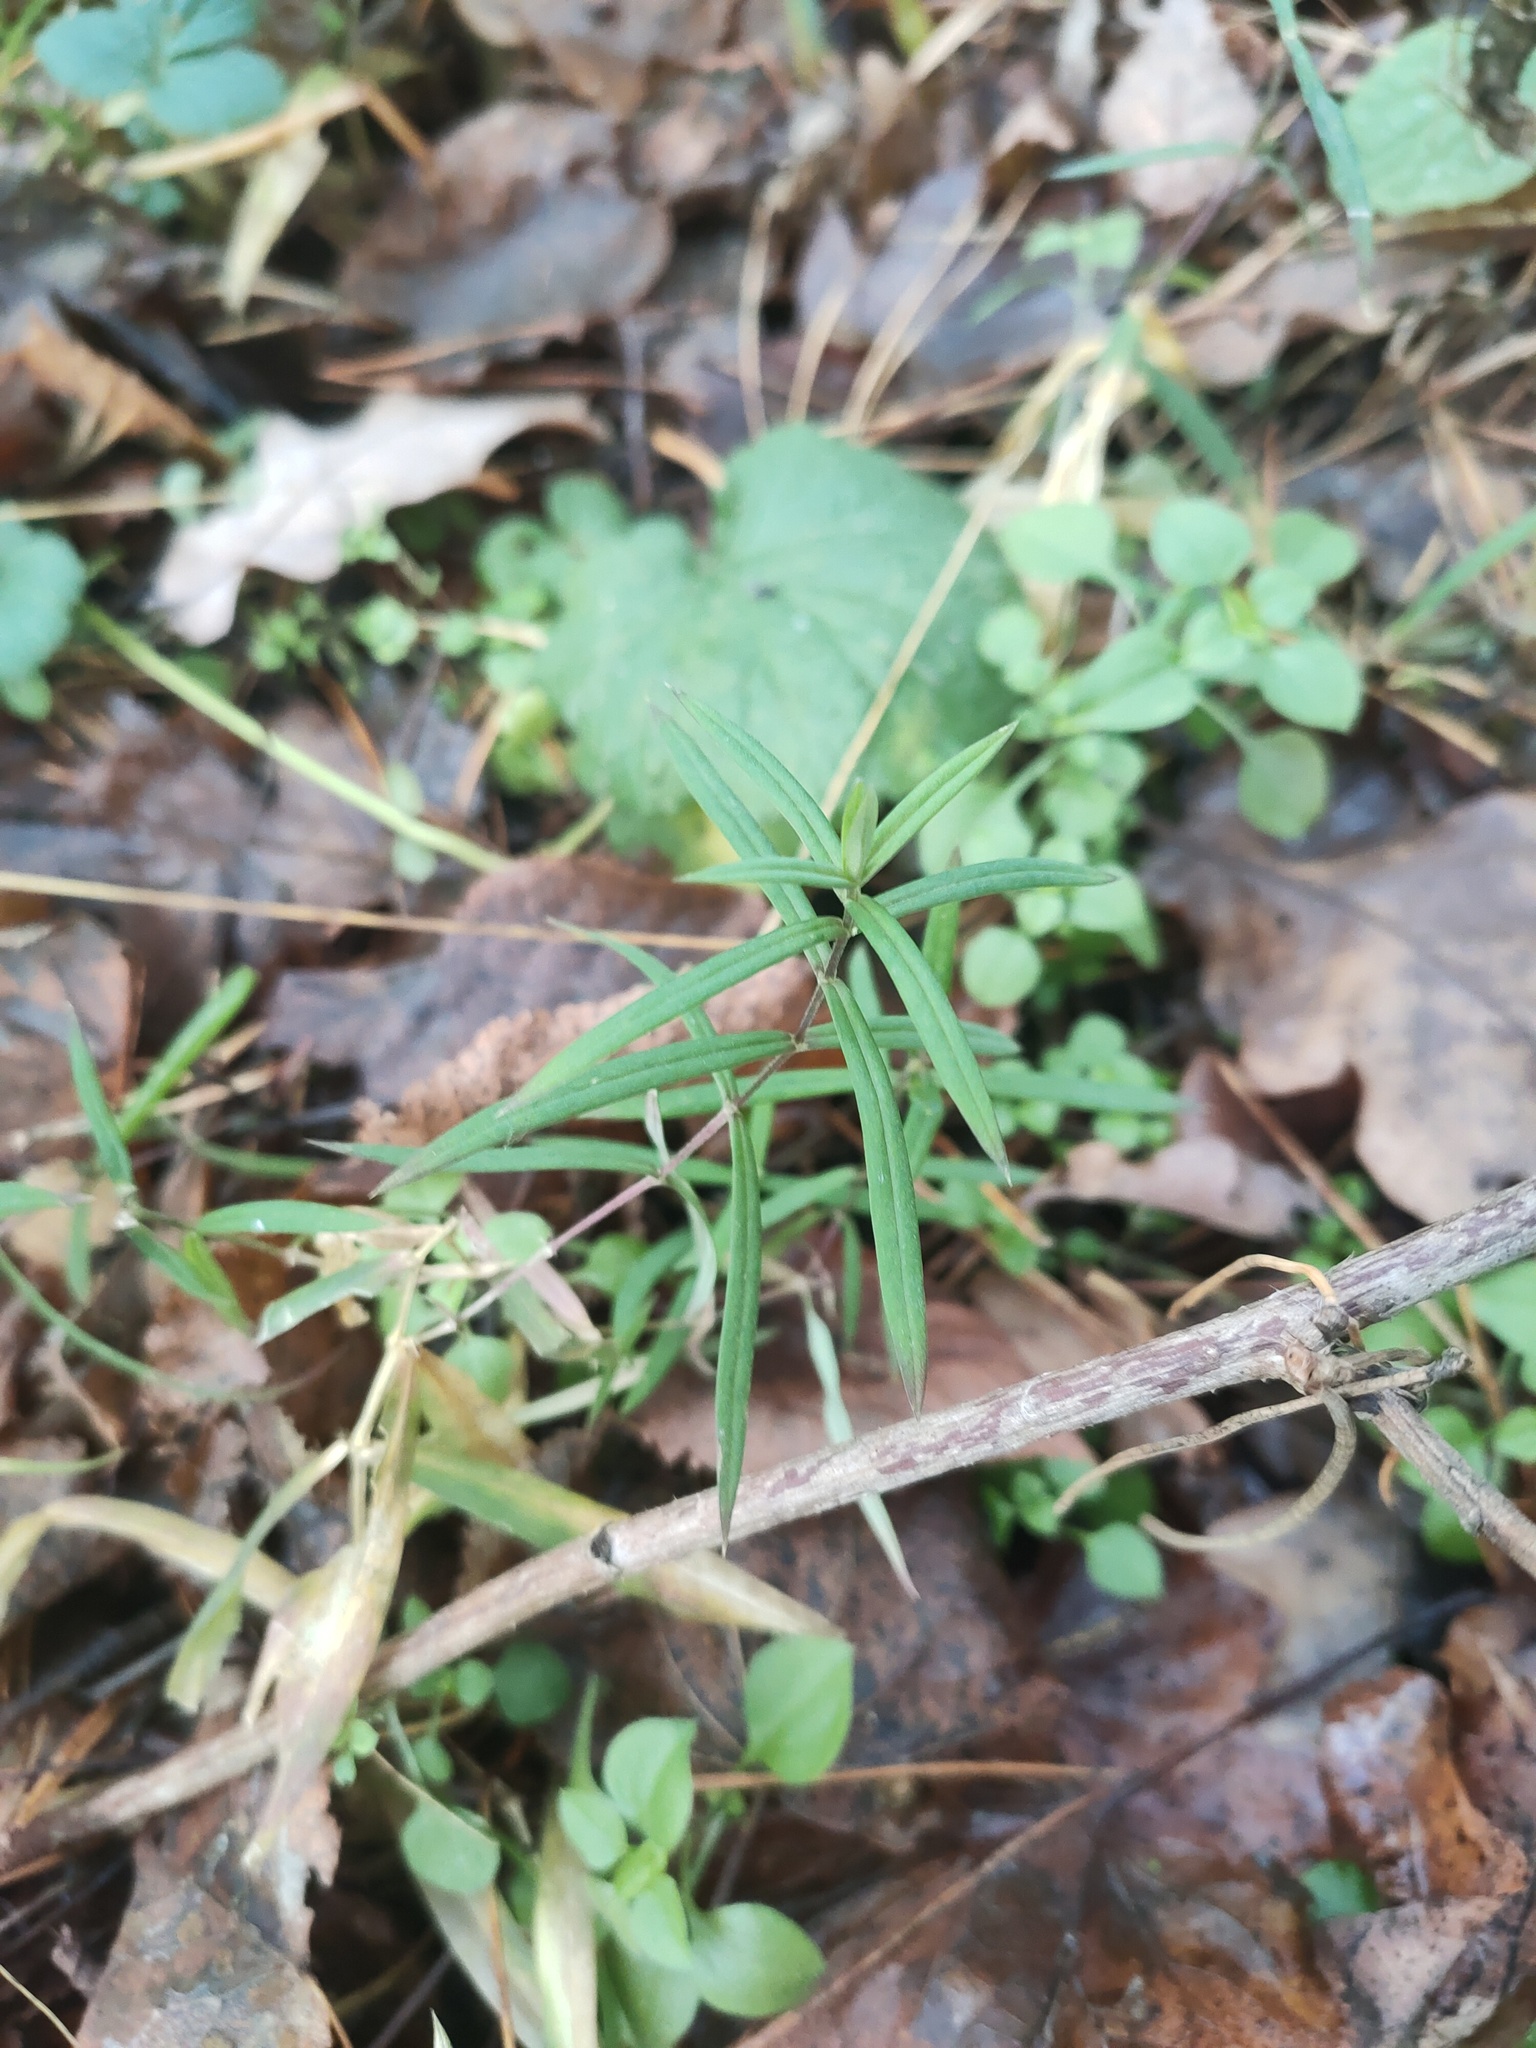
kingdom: Plantae
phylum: Tracheophyta
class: Magnoliopsida
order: Caryophyllales
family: Caryophyllaceae
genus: Rabelera
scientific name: Rabelera holostea
